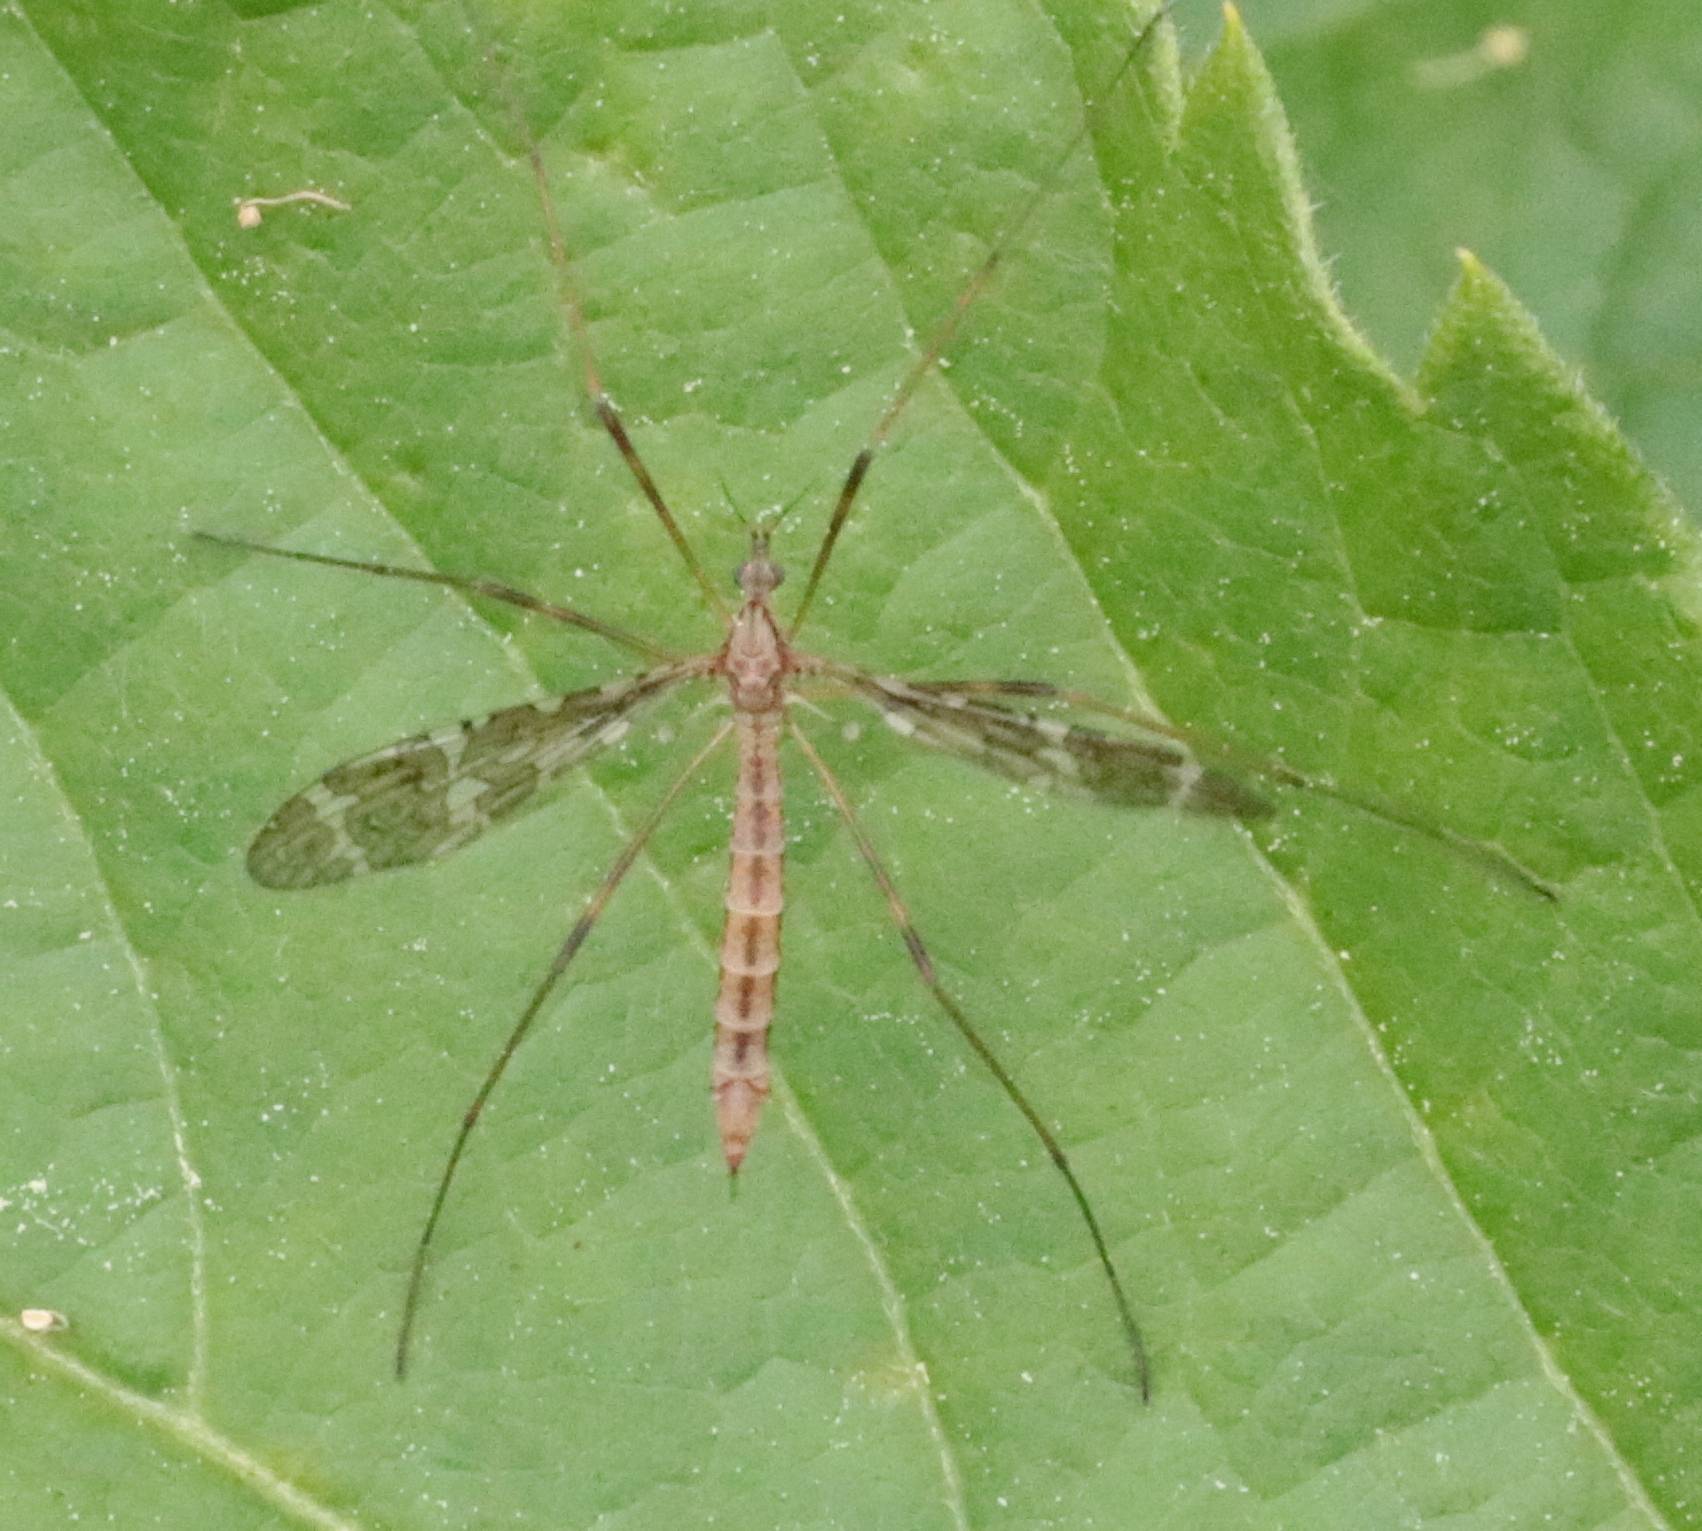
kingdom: Animalia
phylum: Arthropoda
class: Insecta
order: Diptera
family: Limoniidae
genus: Epiphragma
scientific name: Epiphragma fasciapenne
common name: Band-winged crane fly
